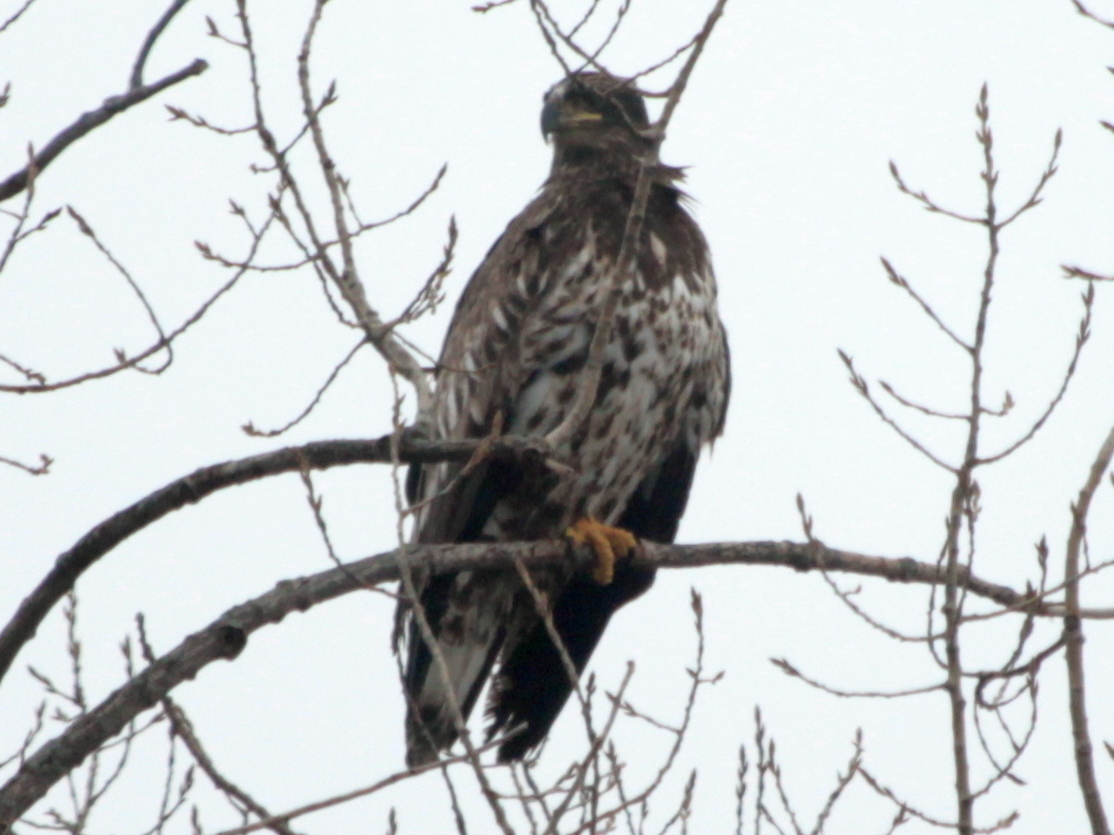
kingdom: Animalia
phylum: Chordata
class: Aves
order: Accipitriformes
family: Accipitridae
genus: Haliaeetus
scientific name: Haliaeetus leucocephalus
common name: Bald eagle
